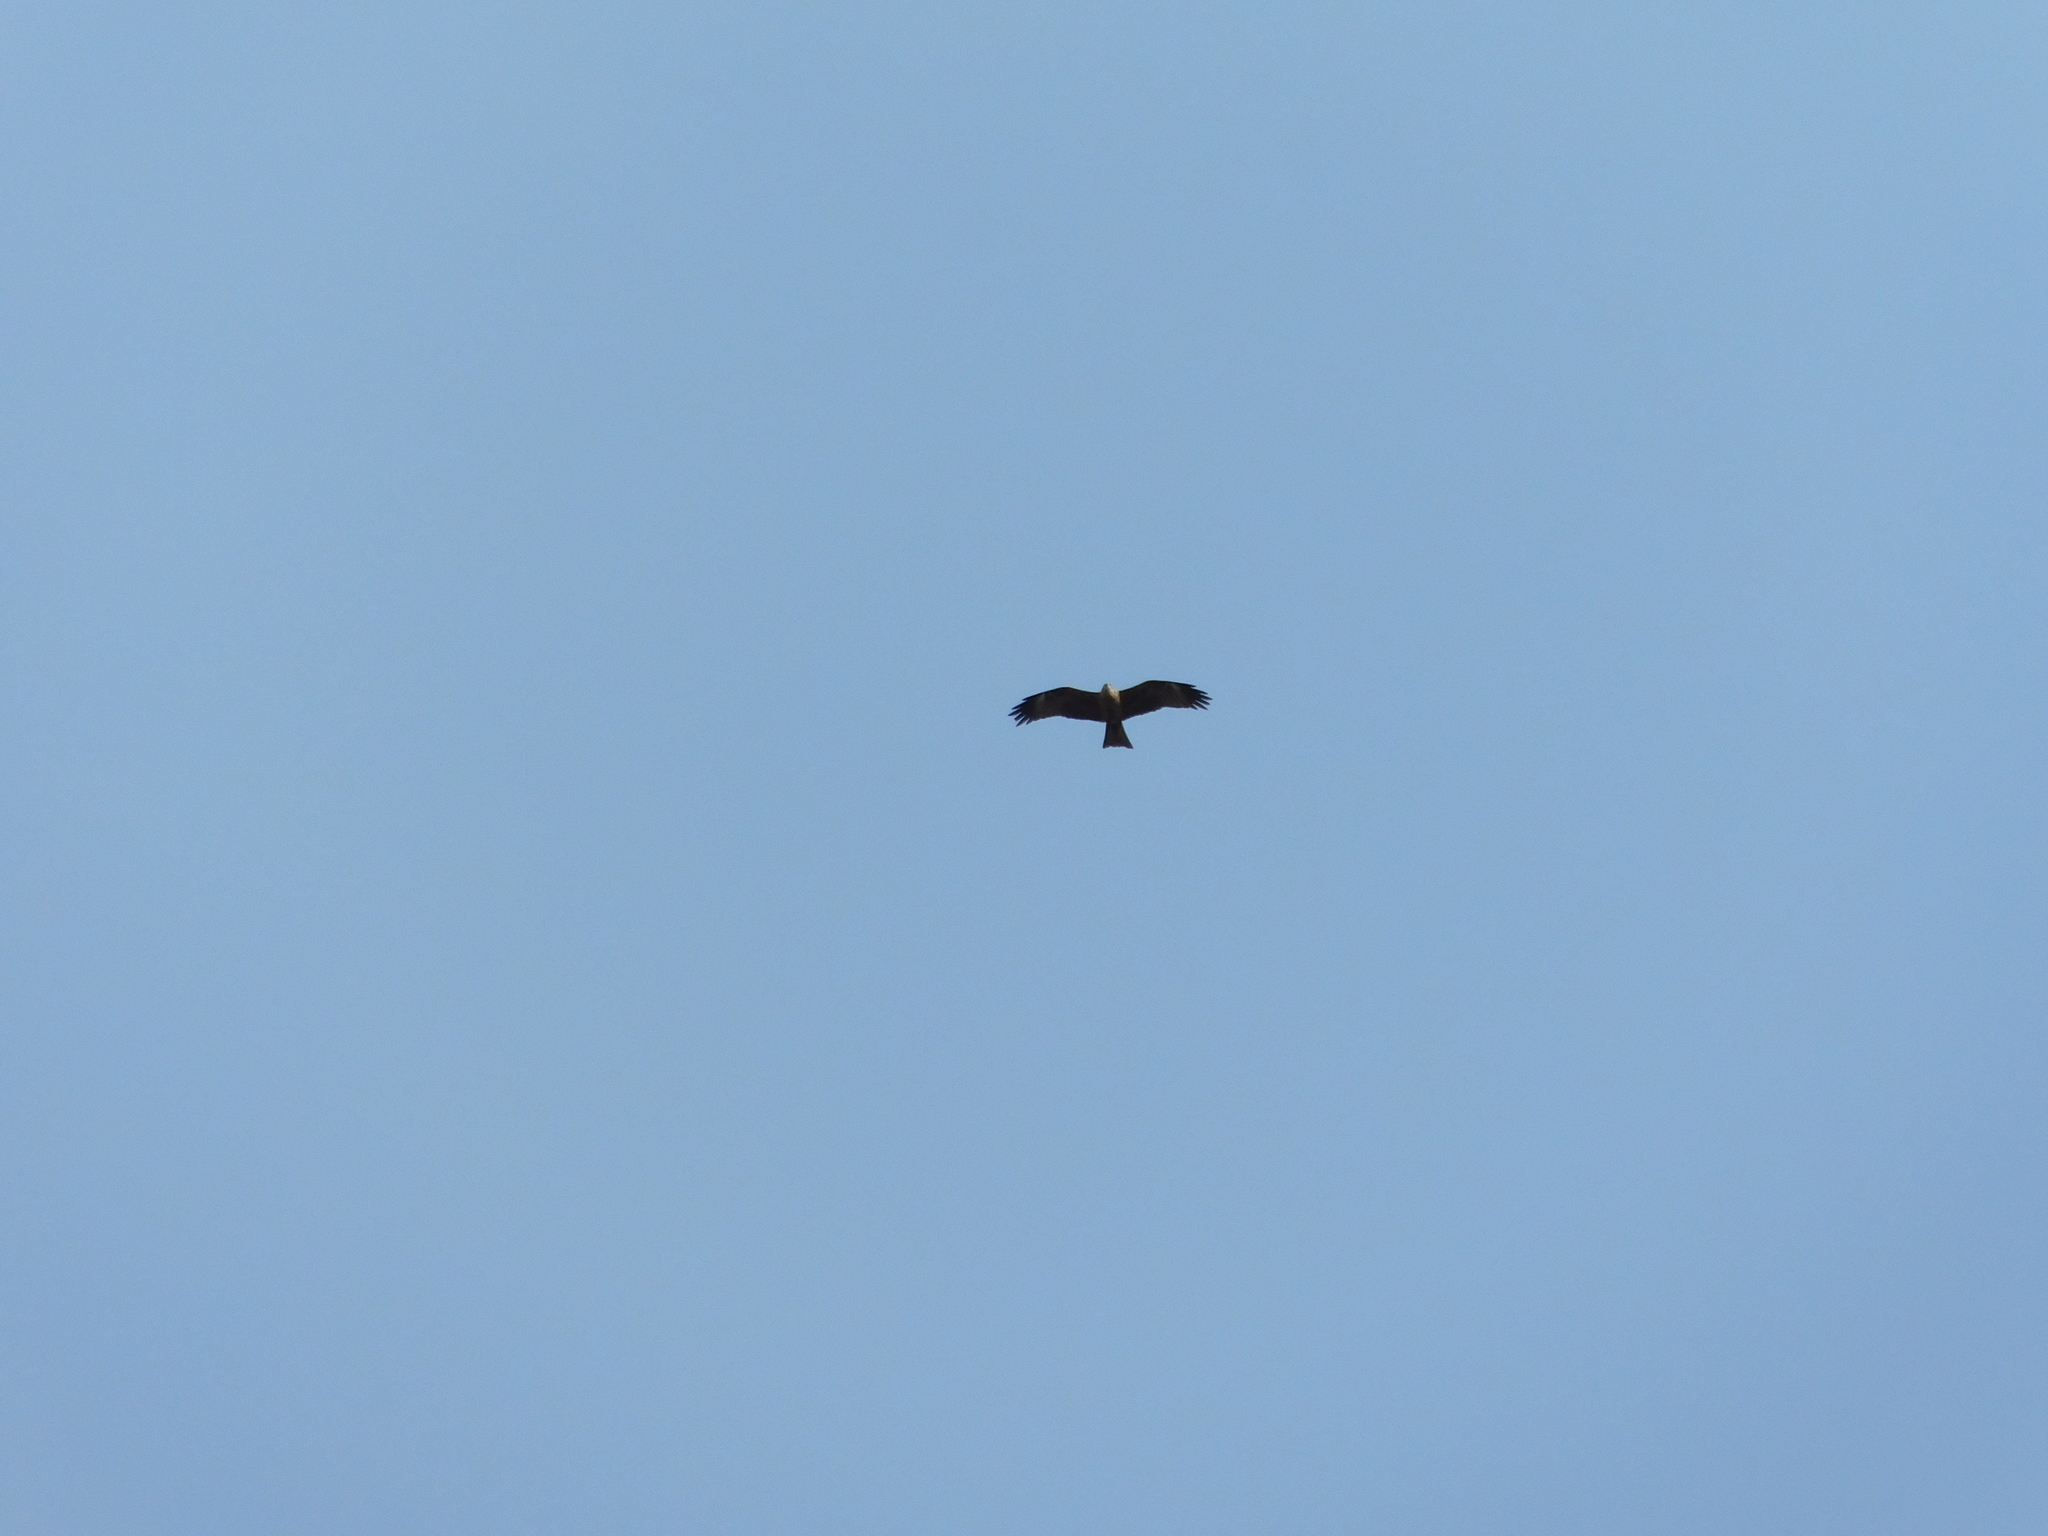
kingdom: Animalia
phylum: Chordata
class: Aves
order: Accipitriformes
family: Accipitridae
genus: Milvus
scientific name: Milvus migrans
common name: Black kite
